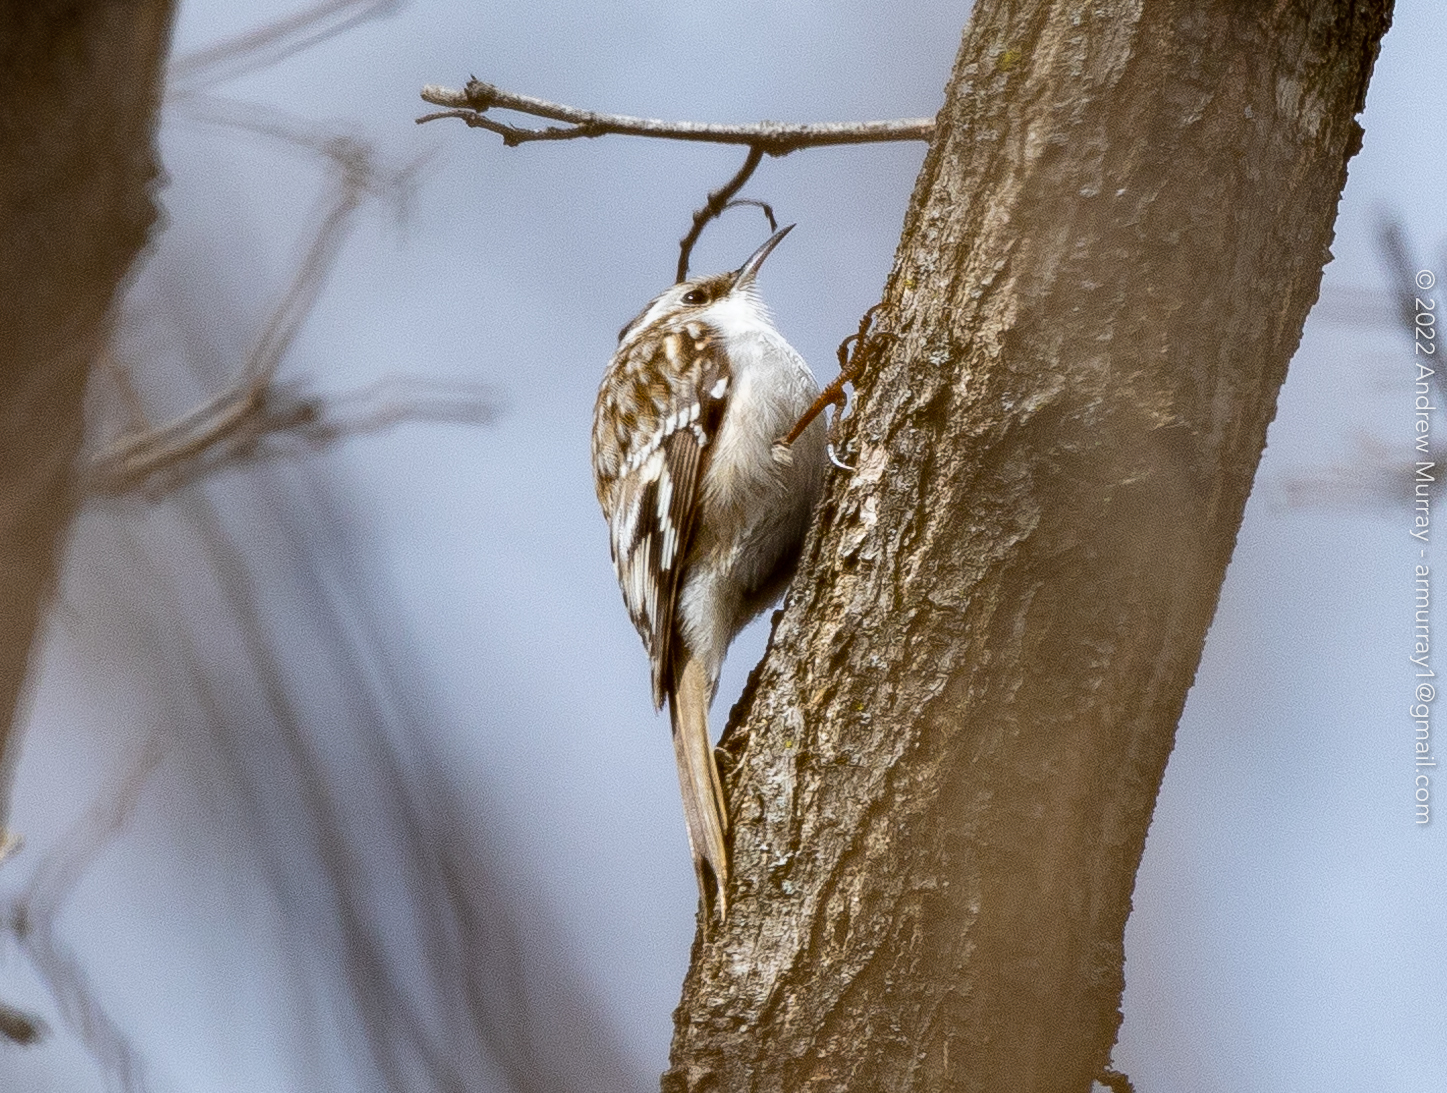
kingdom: Animalia
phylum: Chordata
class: Aves
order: Passeriformes
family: Certhiidae
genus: Certhia
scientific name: Certhia americana
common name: Brown creeper
